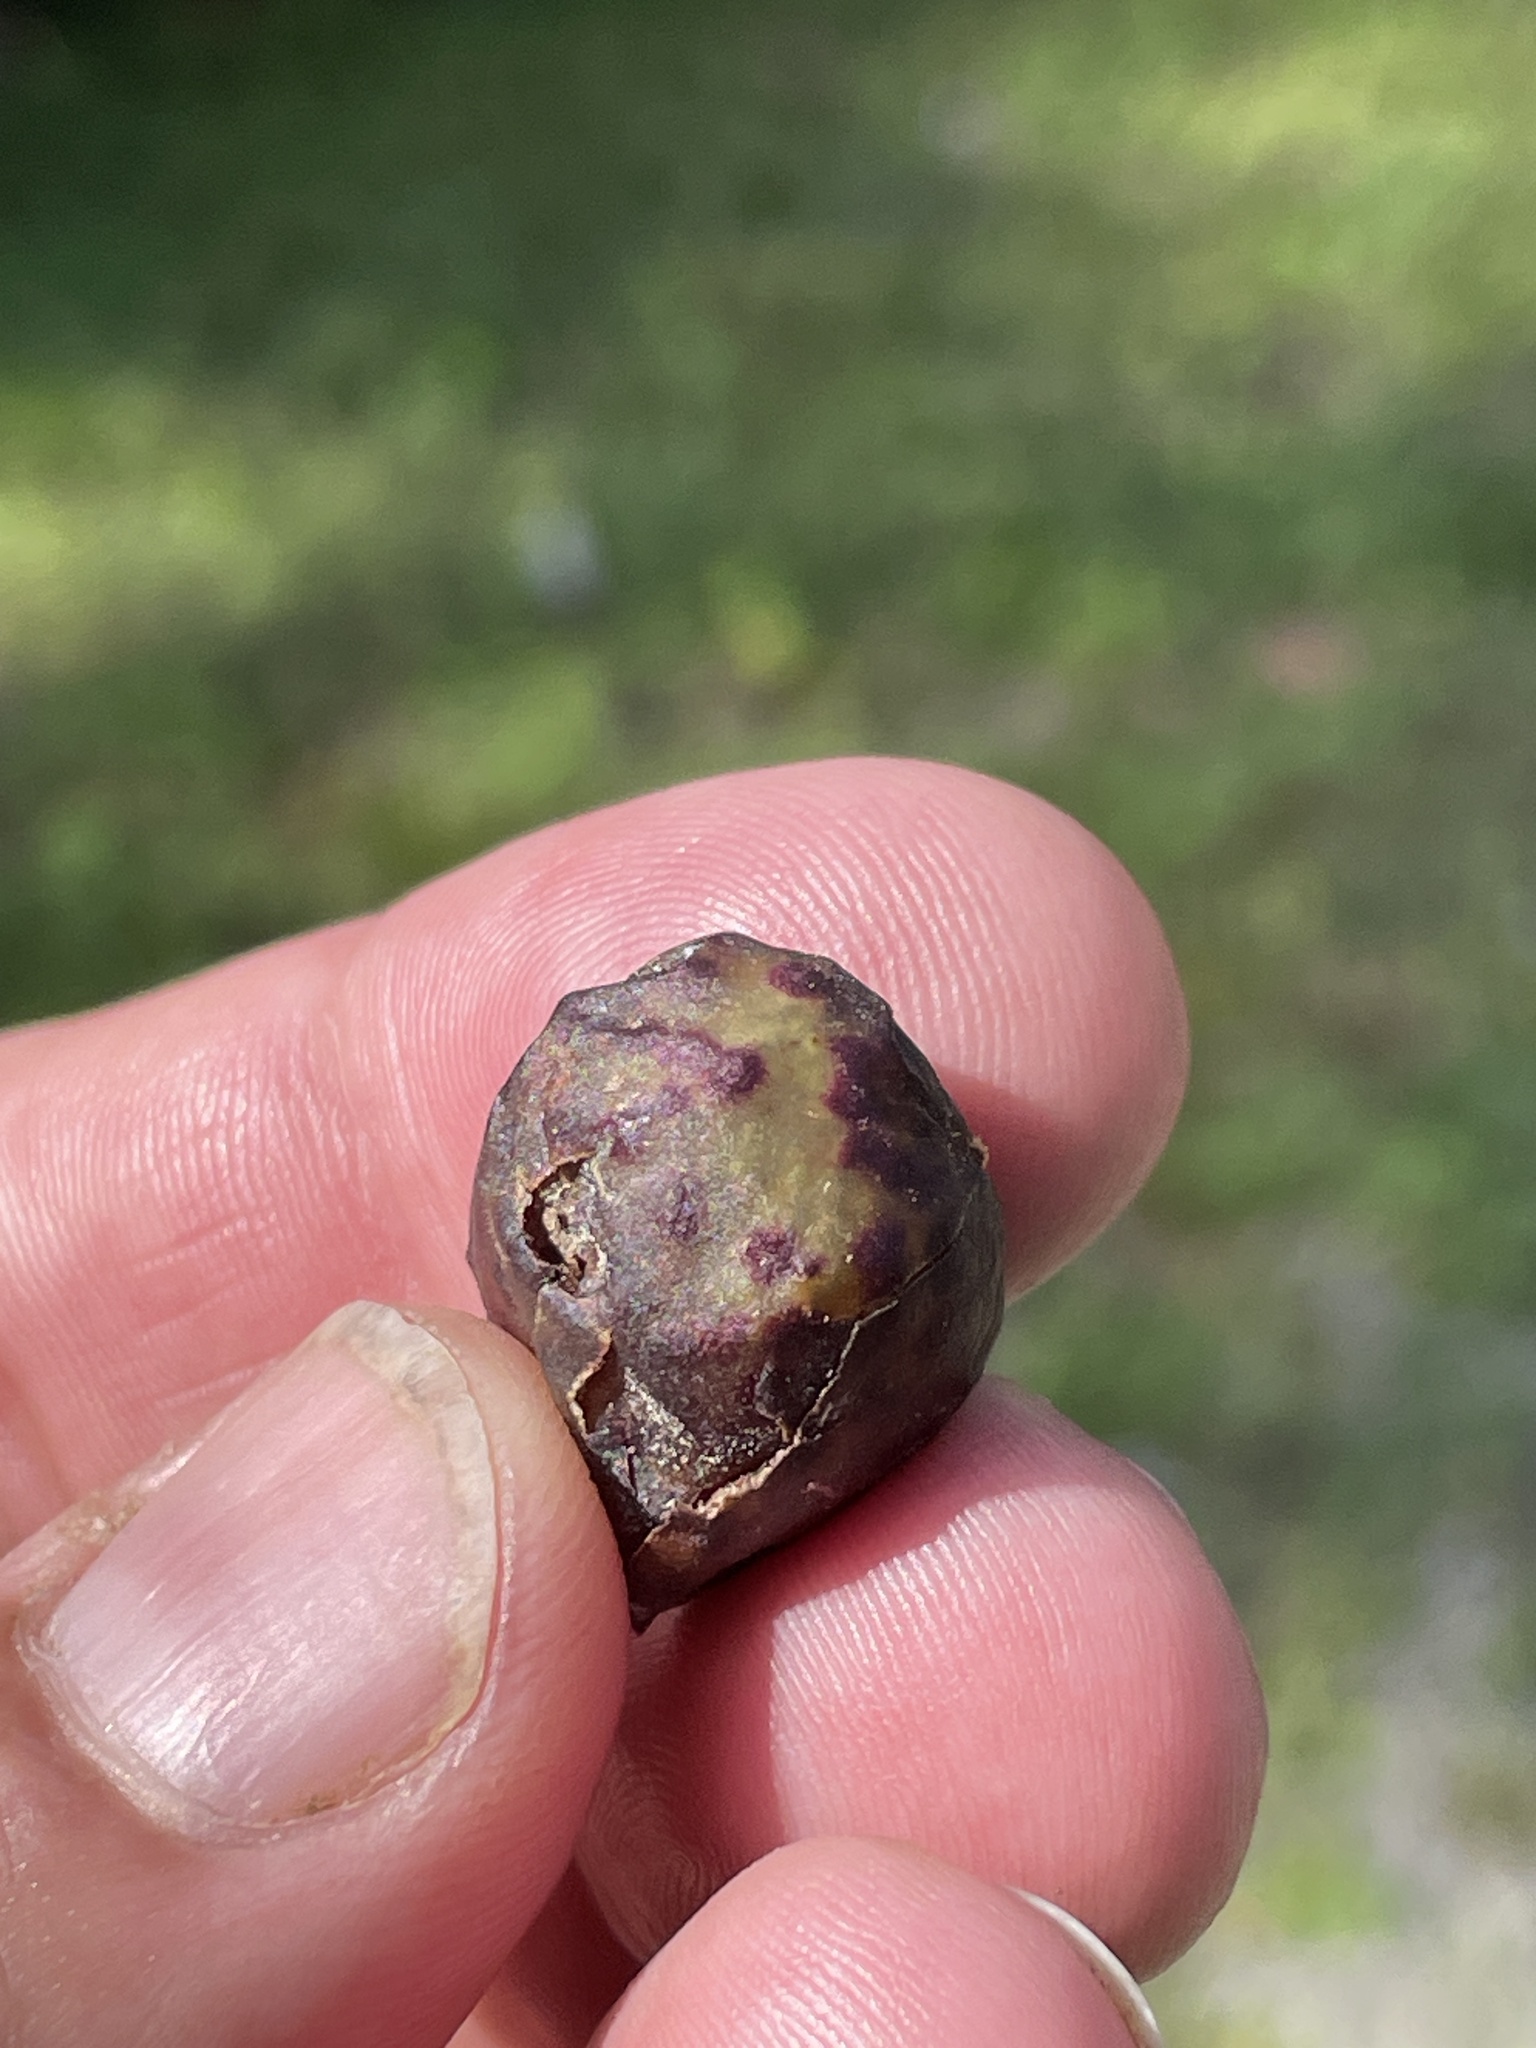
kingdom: Animalia
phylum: Arthropoda
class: Insecta
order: Hymenoptera
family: Cynipidae
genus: Amphibolips
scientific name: Amphibolips
